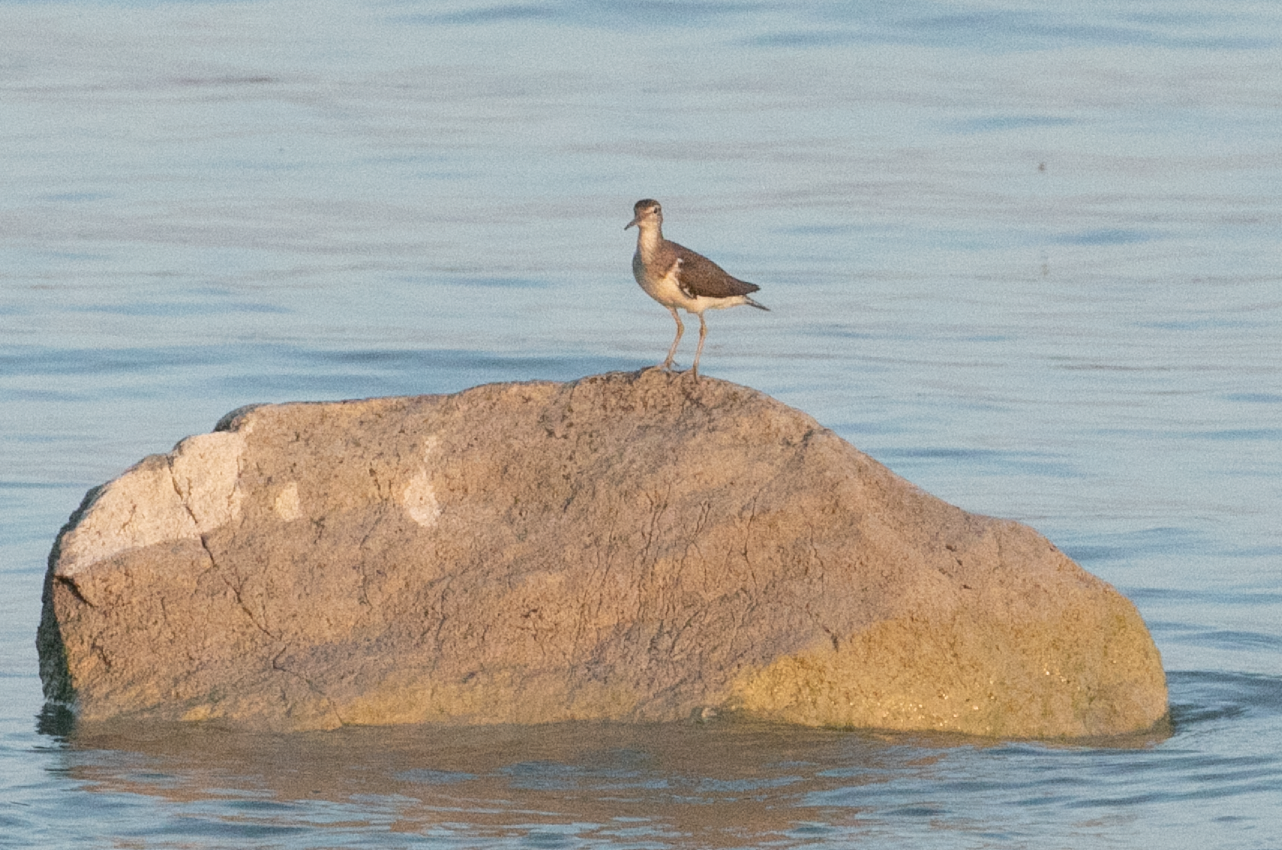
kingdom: Animalia
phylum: Chordata
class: Aves
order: Charadriiformes
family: Scolopacidae
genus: Actitis
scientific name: Actitis hypoleucos
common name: Common sandpiper
